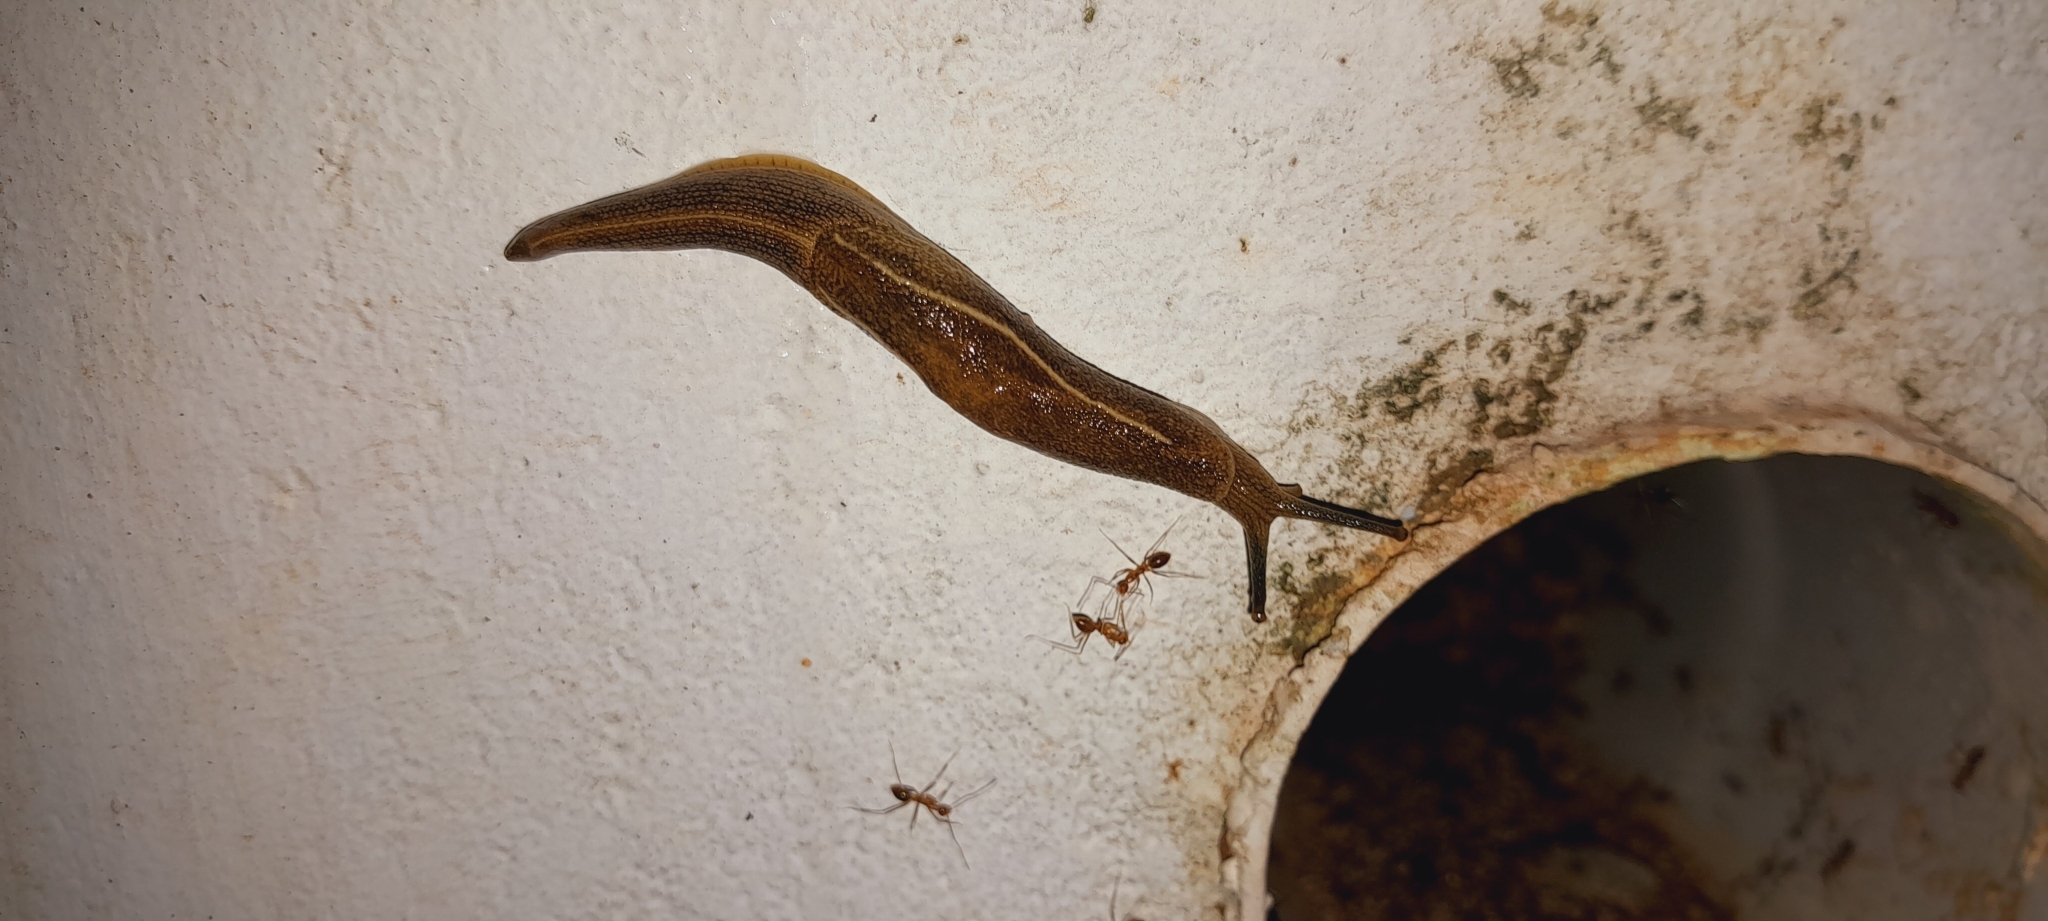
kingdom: Animalia
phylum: Mollusca
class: Gastropoda
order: Stylommatophora
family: Ariophantidae
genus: Mariaella
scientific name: Mariaella dussumieri
